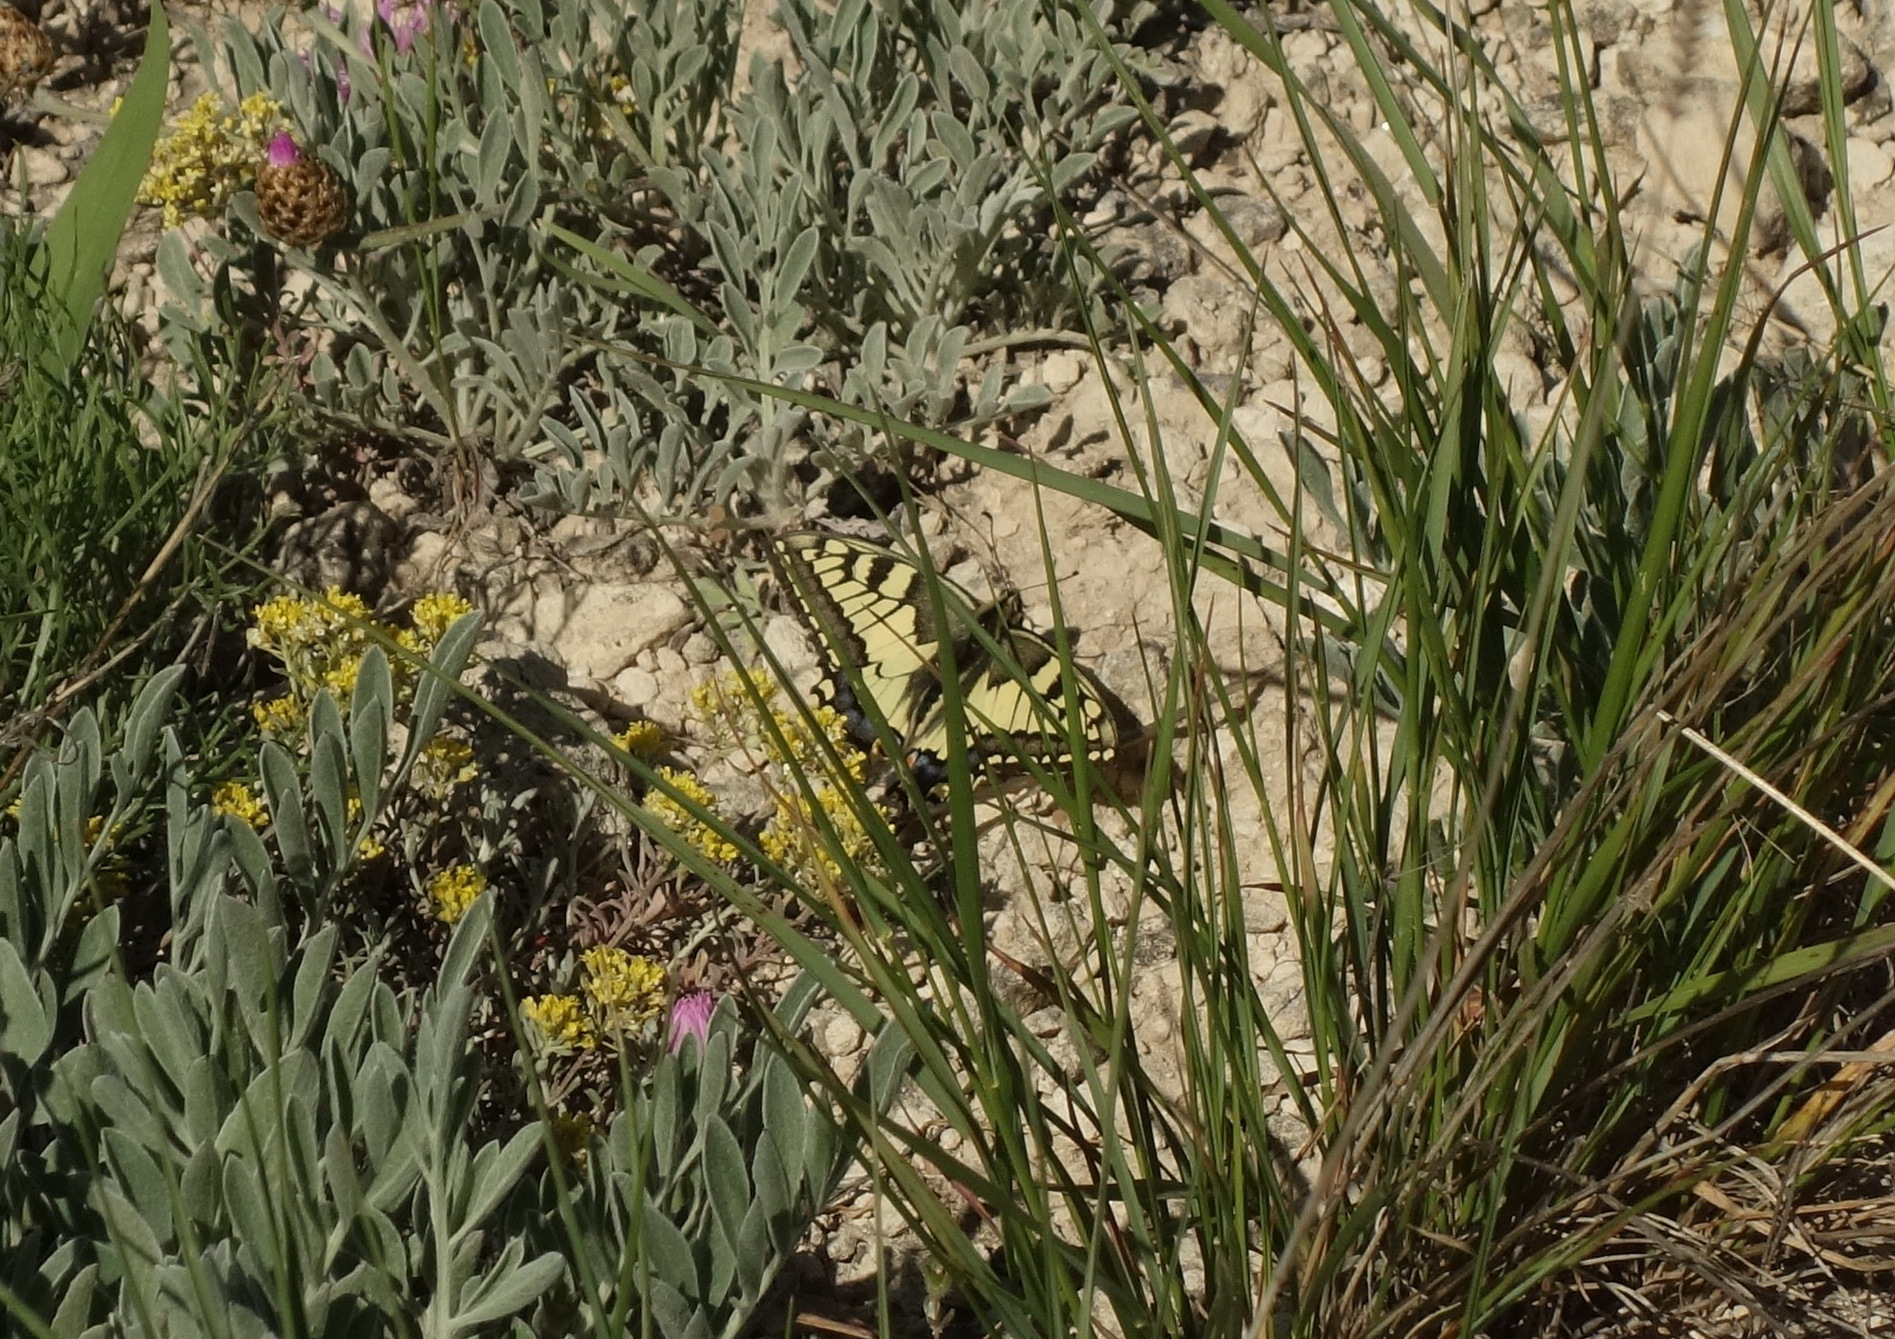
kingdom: Animalia
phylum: Arthropoda
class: Insecta
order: Lepidoptera
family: Papilionidae
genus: Papilio
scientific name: Papilio machaon
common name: Swallowtail
